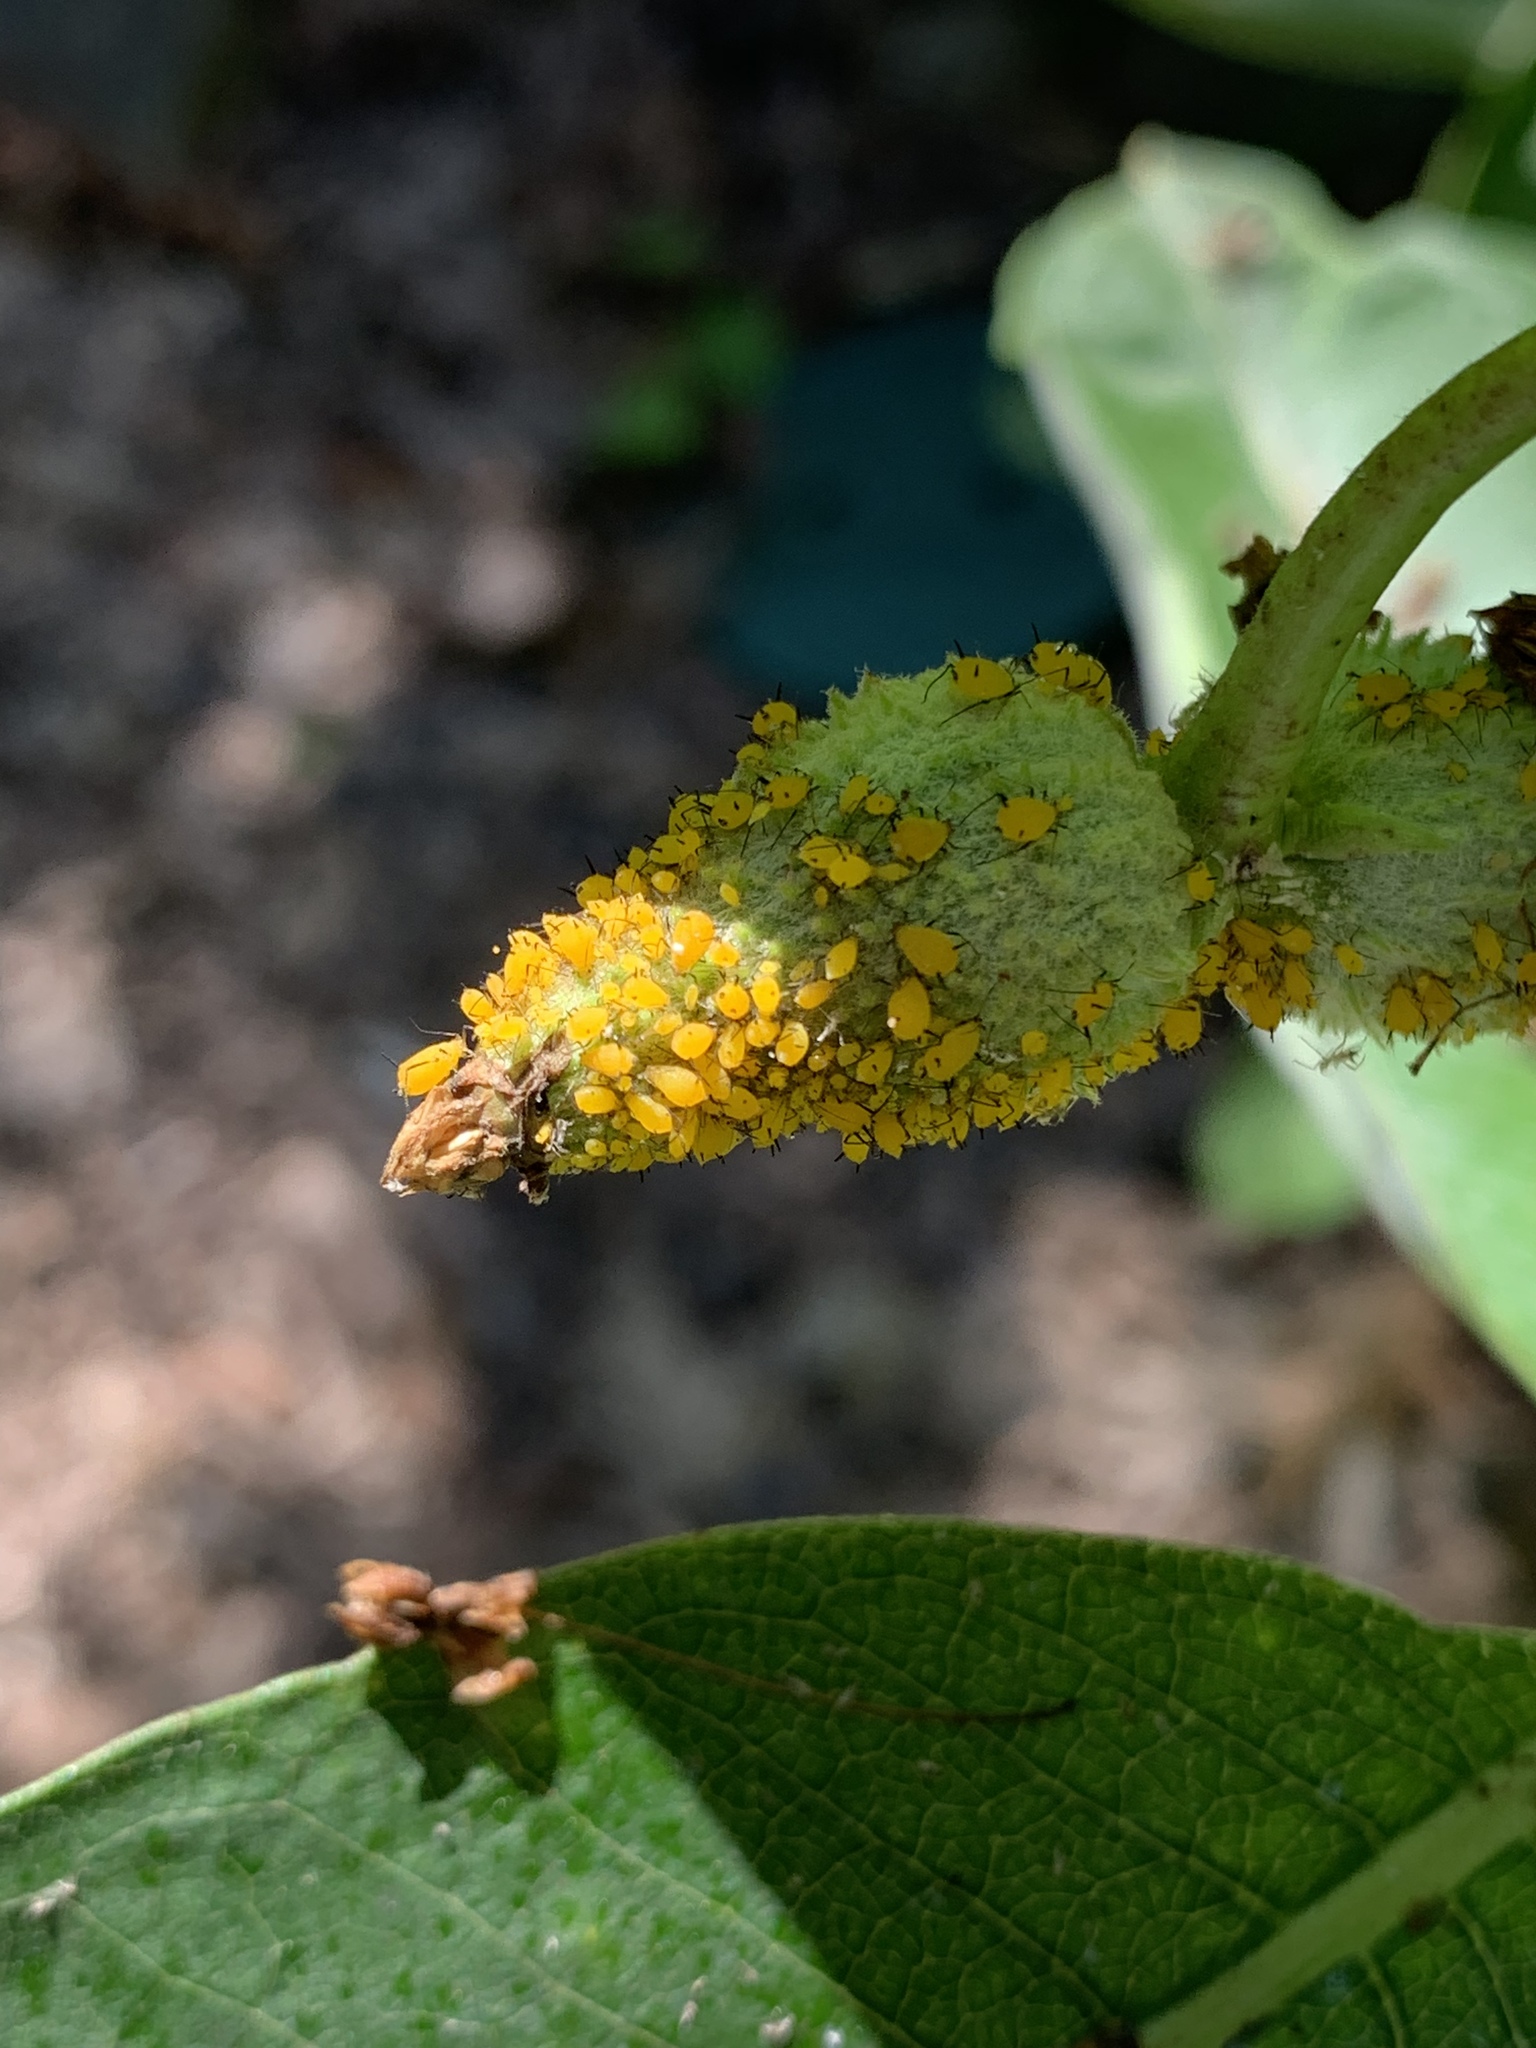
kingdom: Animalia
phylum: Arthropoda
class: Insecta
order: Hemiptera
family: Aphididae
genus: Aphis
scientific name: Aphis nerii
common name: Oleander aphid
